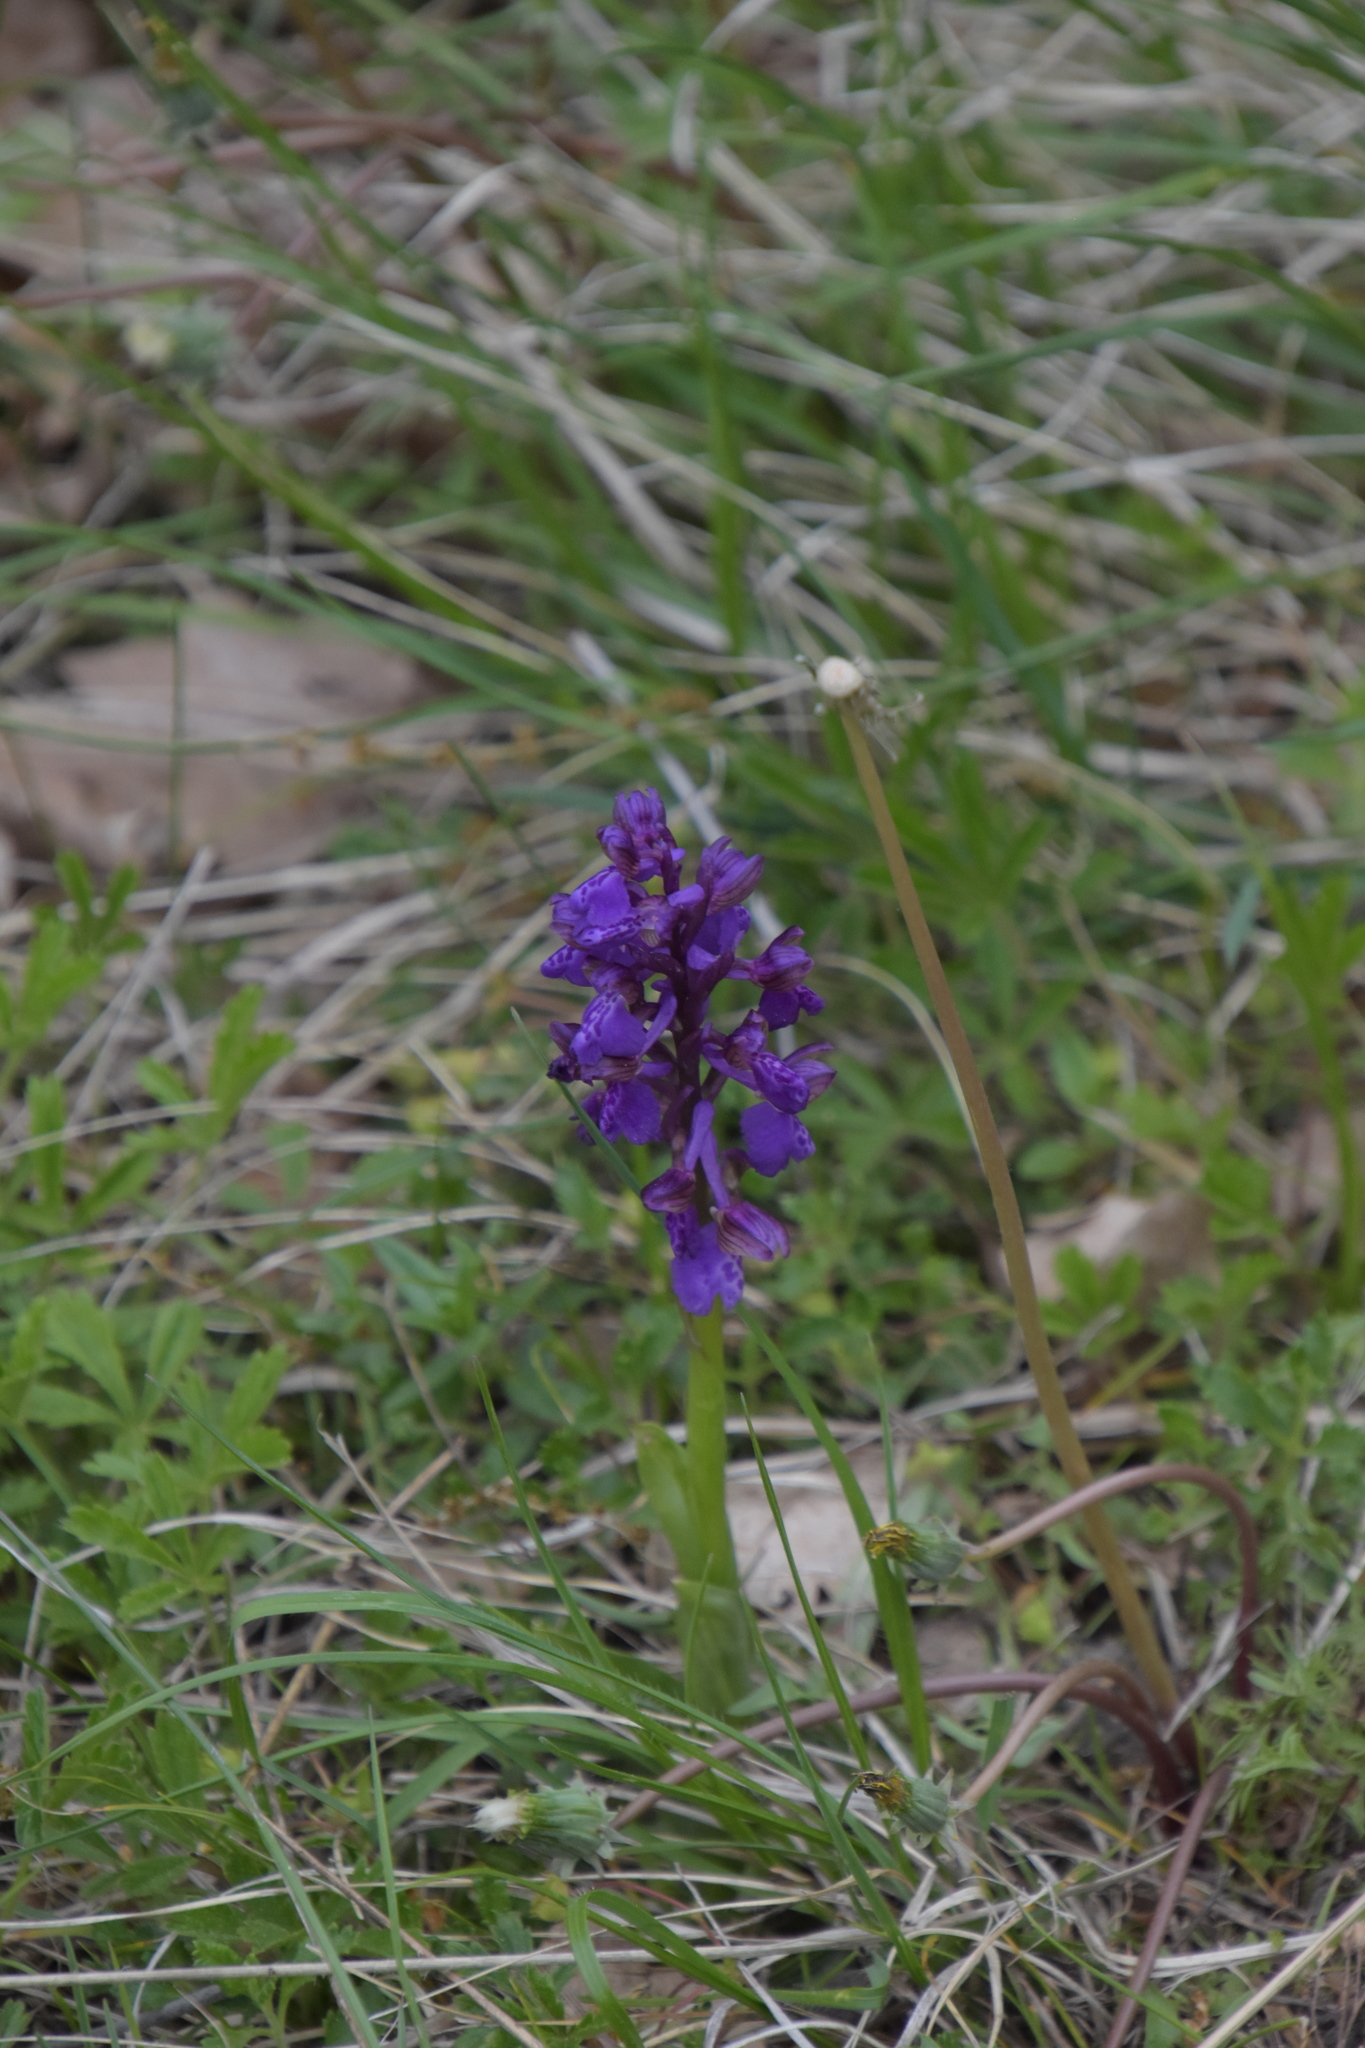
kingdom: Plantae
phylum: Tracheophyta
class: Liliopsida
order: Asparagales
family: Orchidaceae
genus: Anacamptis
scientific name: Anacamptis morio
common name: Green-winged orchid
